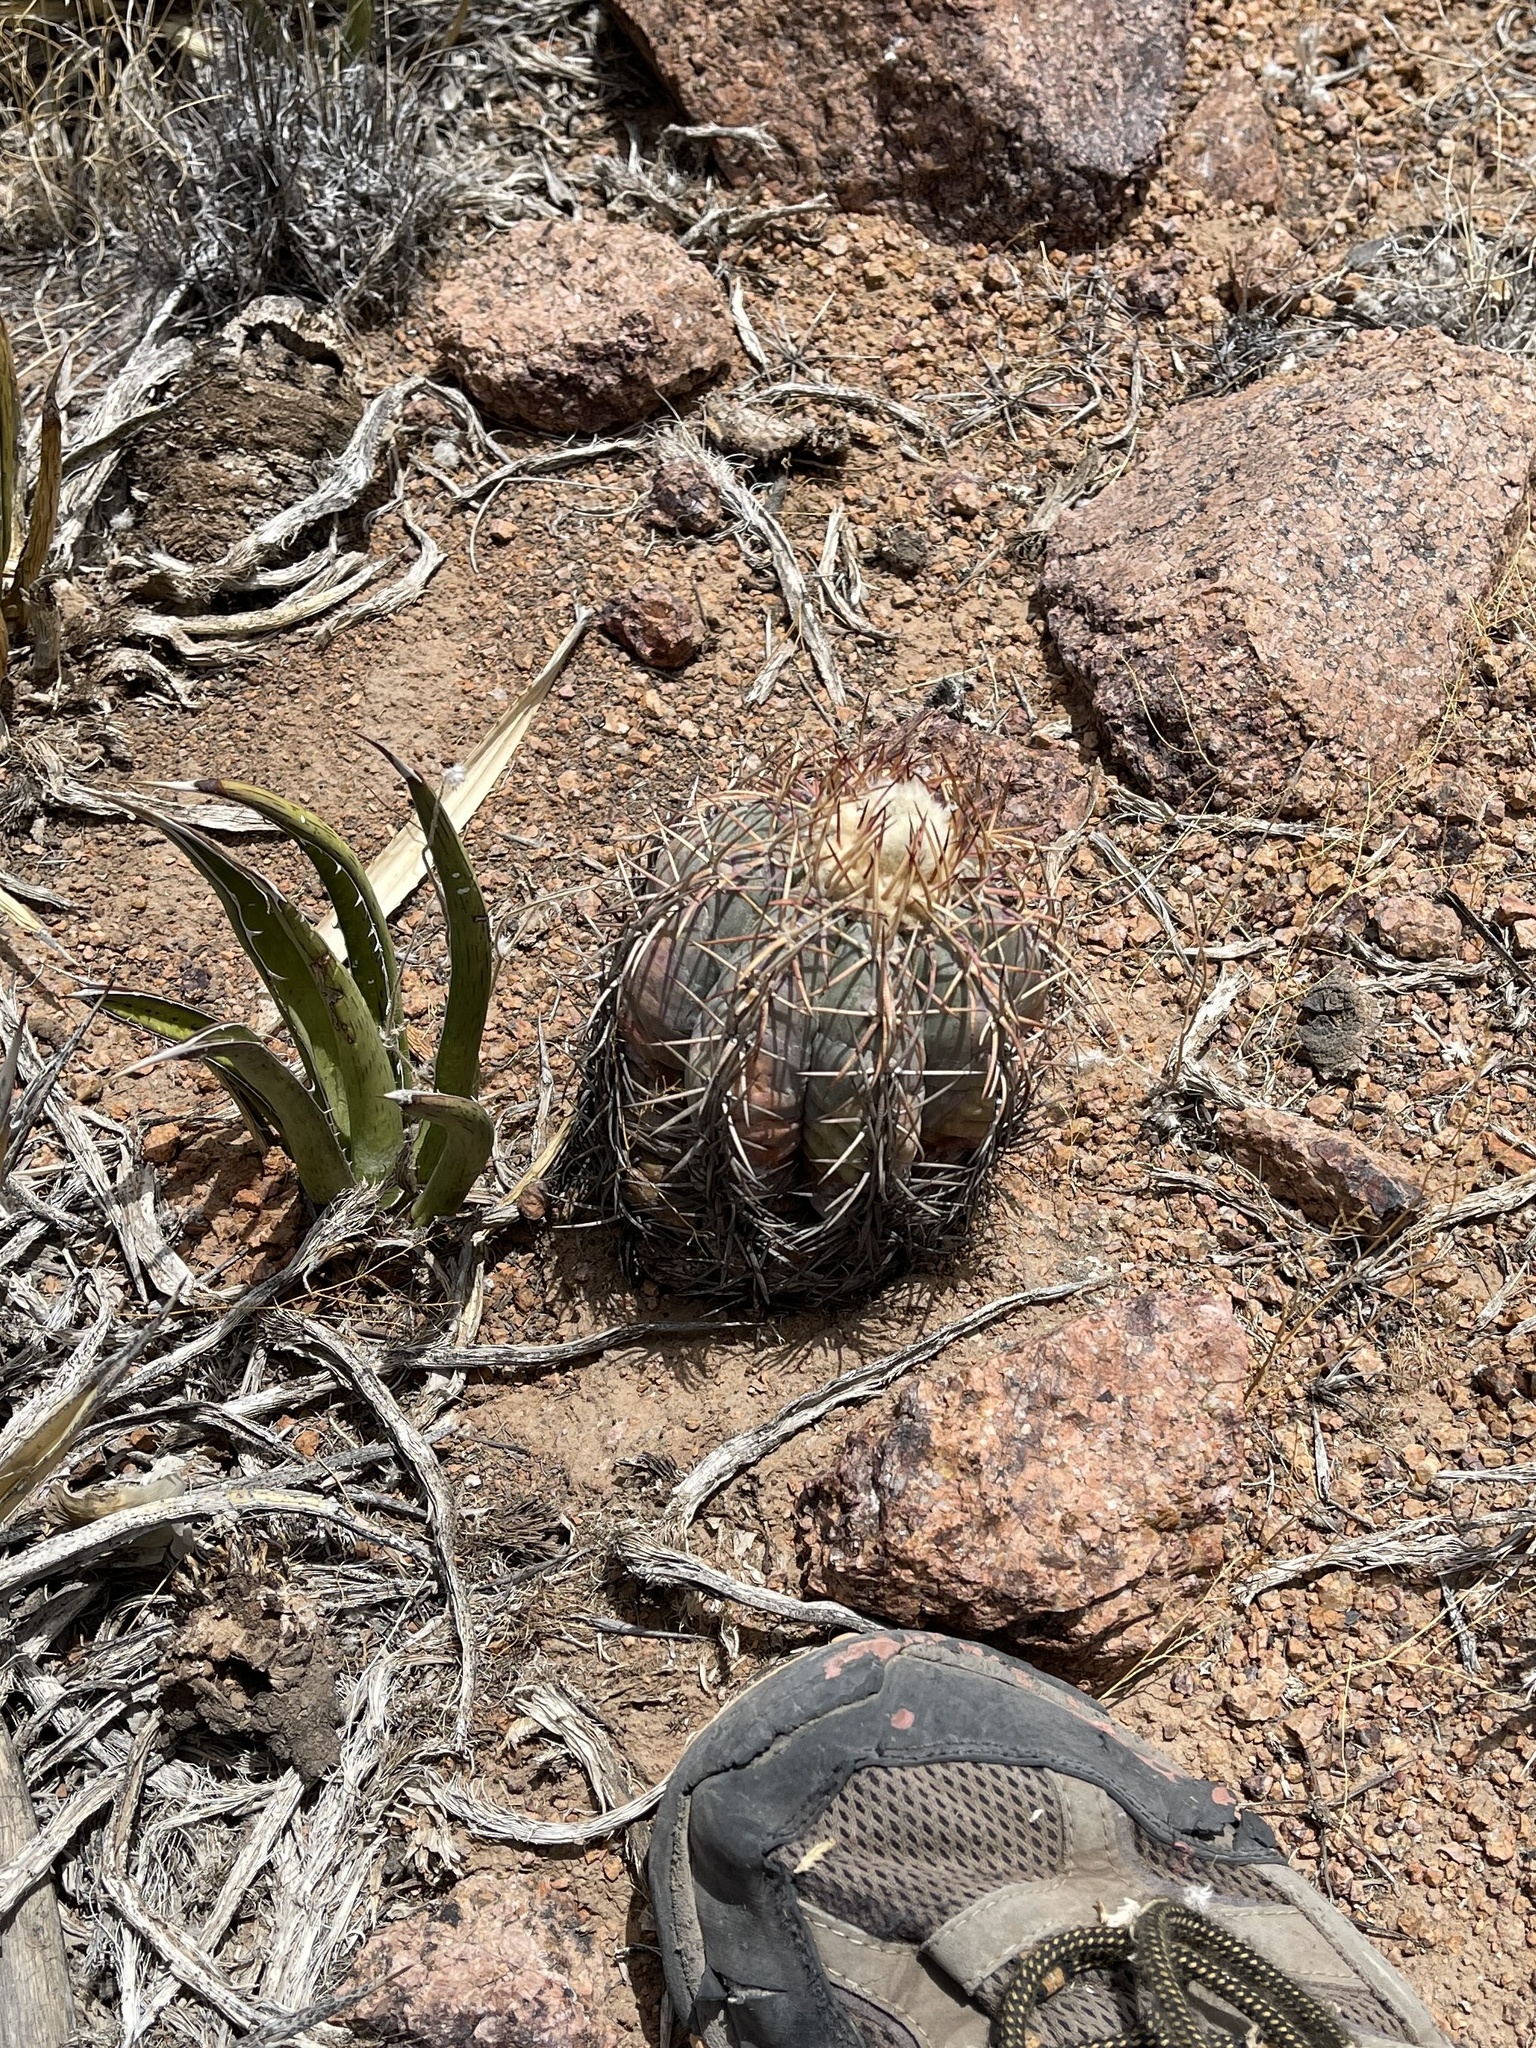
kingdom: Plantae
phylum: Tracheophyta
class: Magnoliopsida
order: Caryophyllales
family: Cactaceae
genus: Echinocactus
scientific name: Echinocactus horizonthalonius
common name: Devilshead
